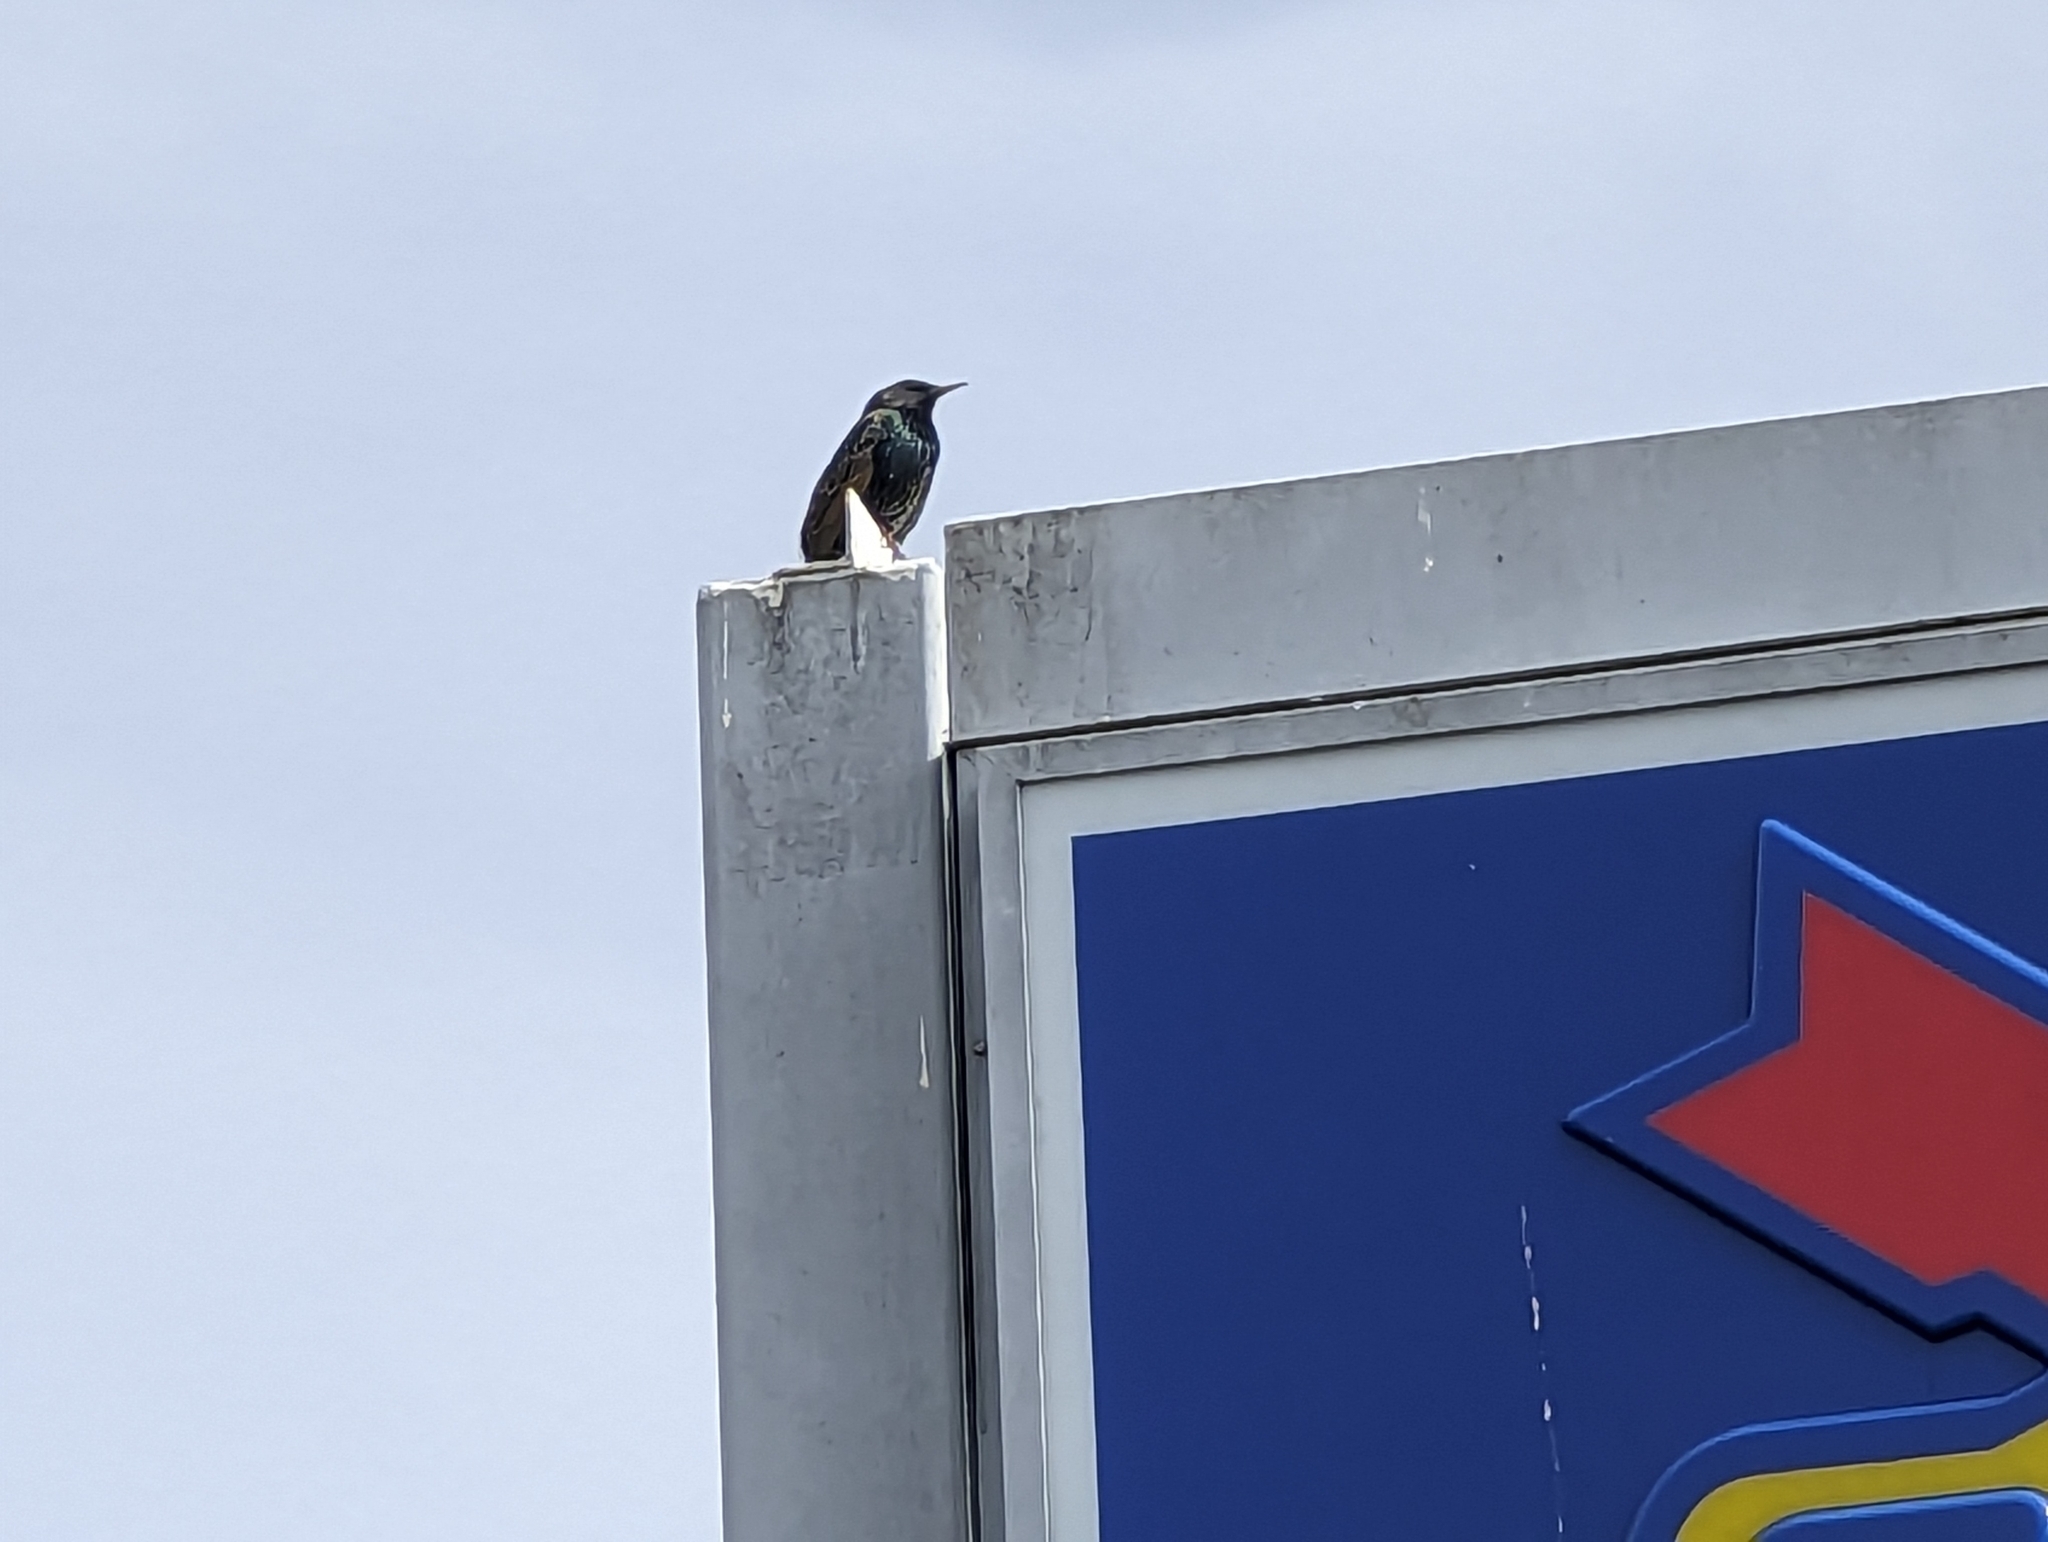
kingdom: Animalia
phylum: Chordata
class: Aves
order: Passeriformes
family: Sturnidae
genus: Sturnus
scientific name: Sturnus vulgaris
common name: Common starling
